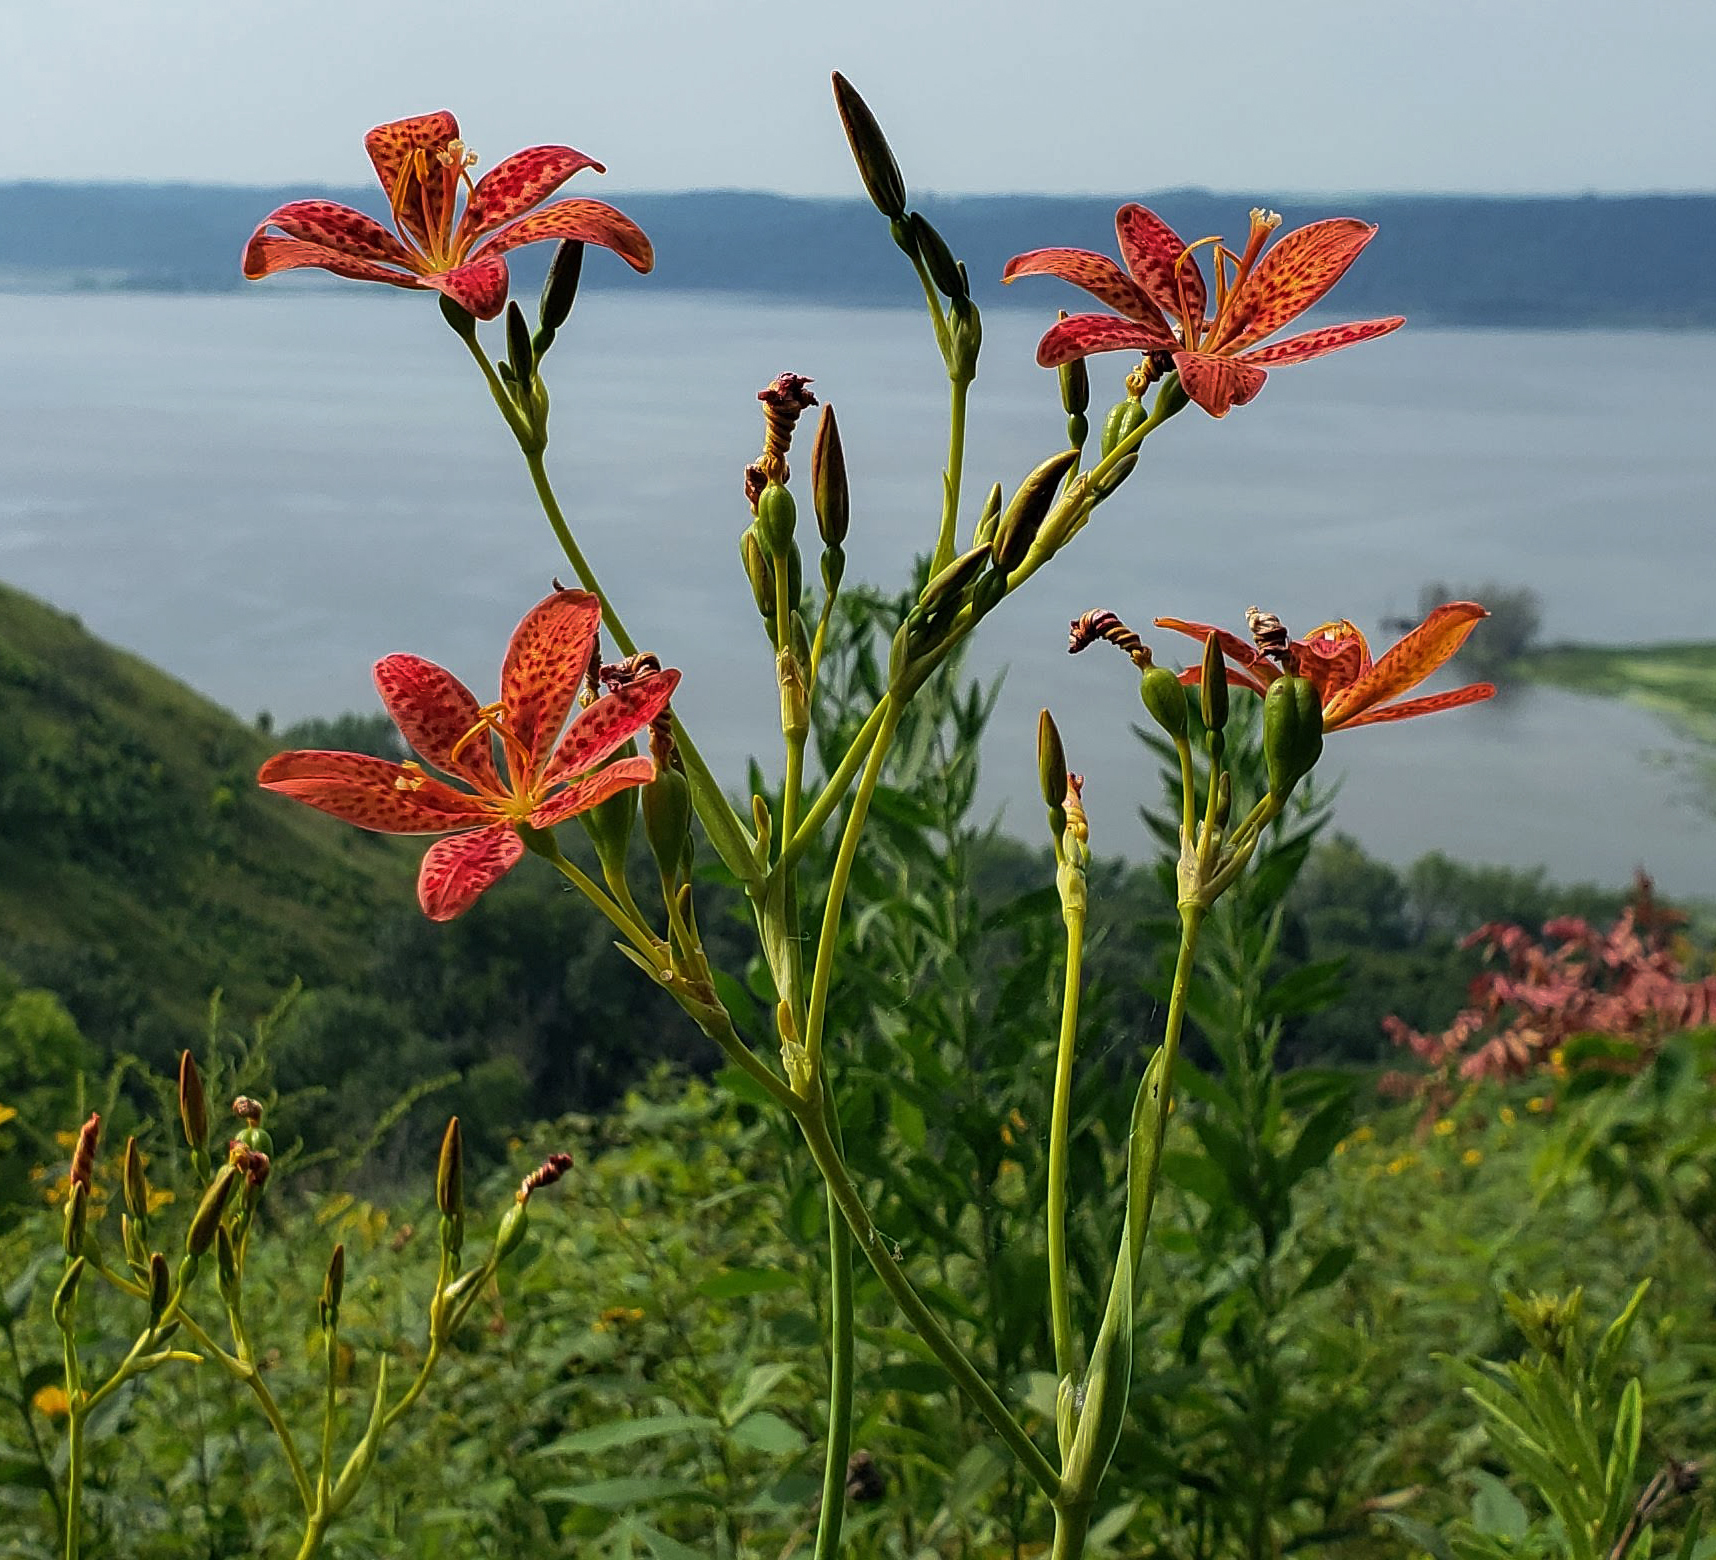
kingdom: Plantae
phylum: Tracheophyta
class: Liliopsida
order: Asparagales
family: Iridaceae
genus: Iris
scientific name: Iris domestica
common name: Belamcanda
